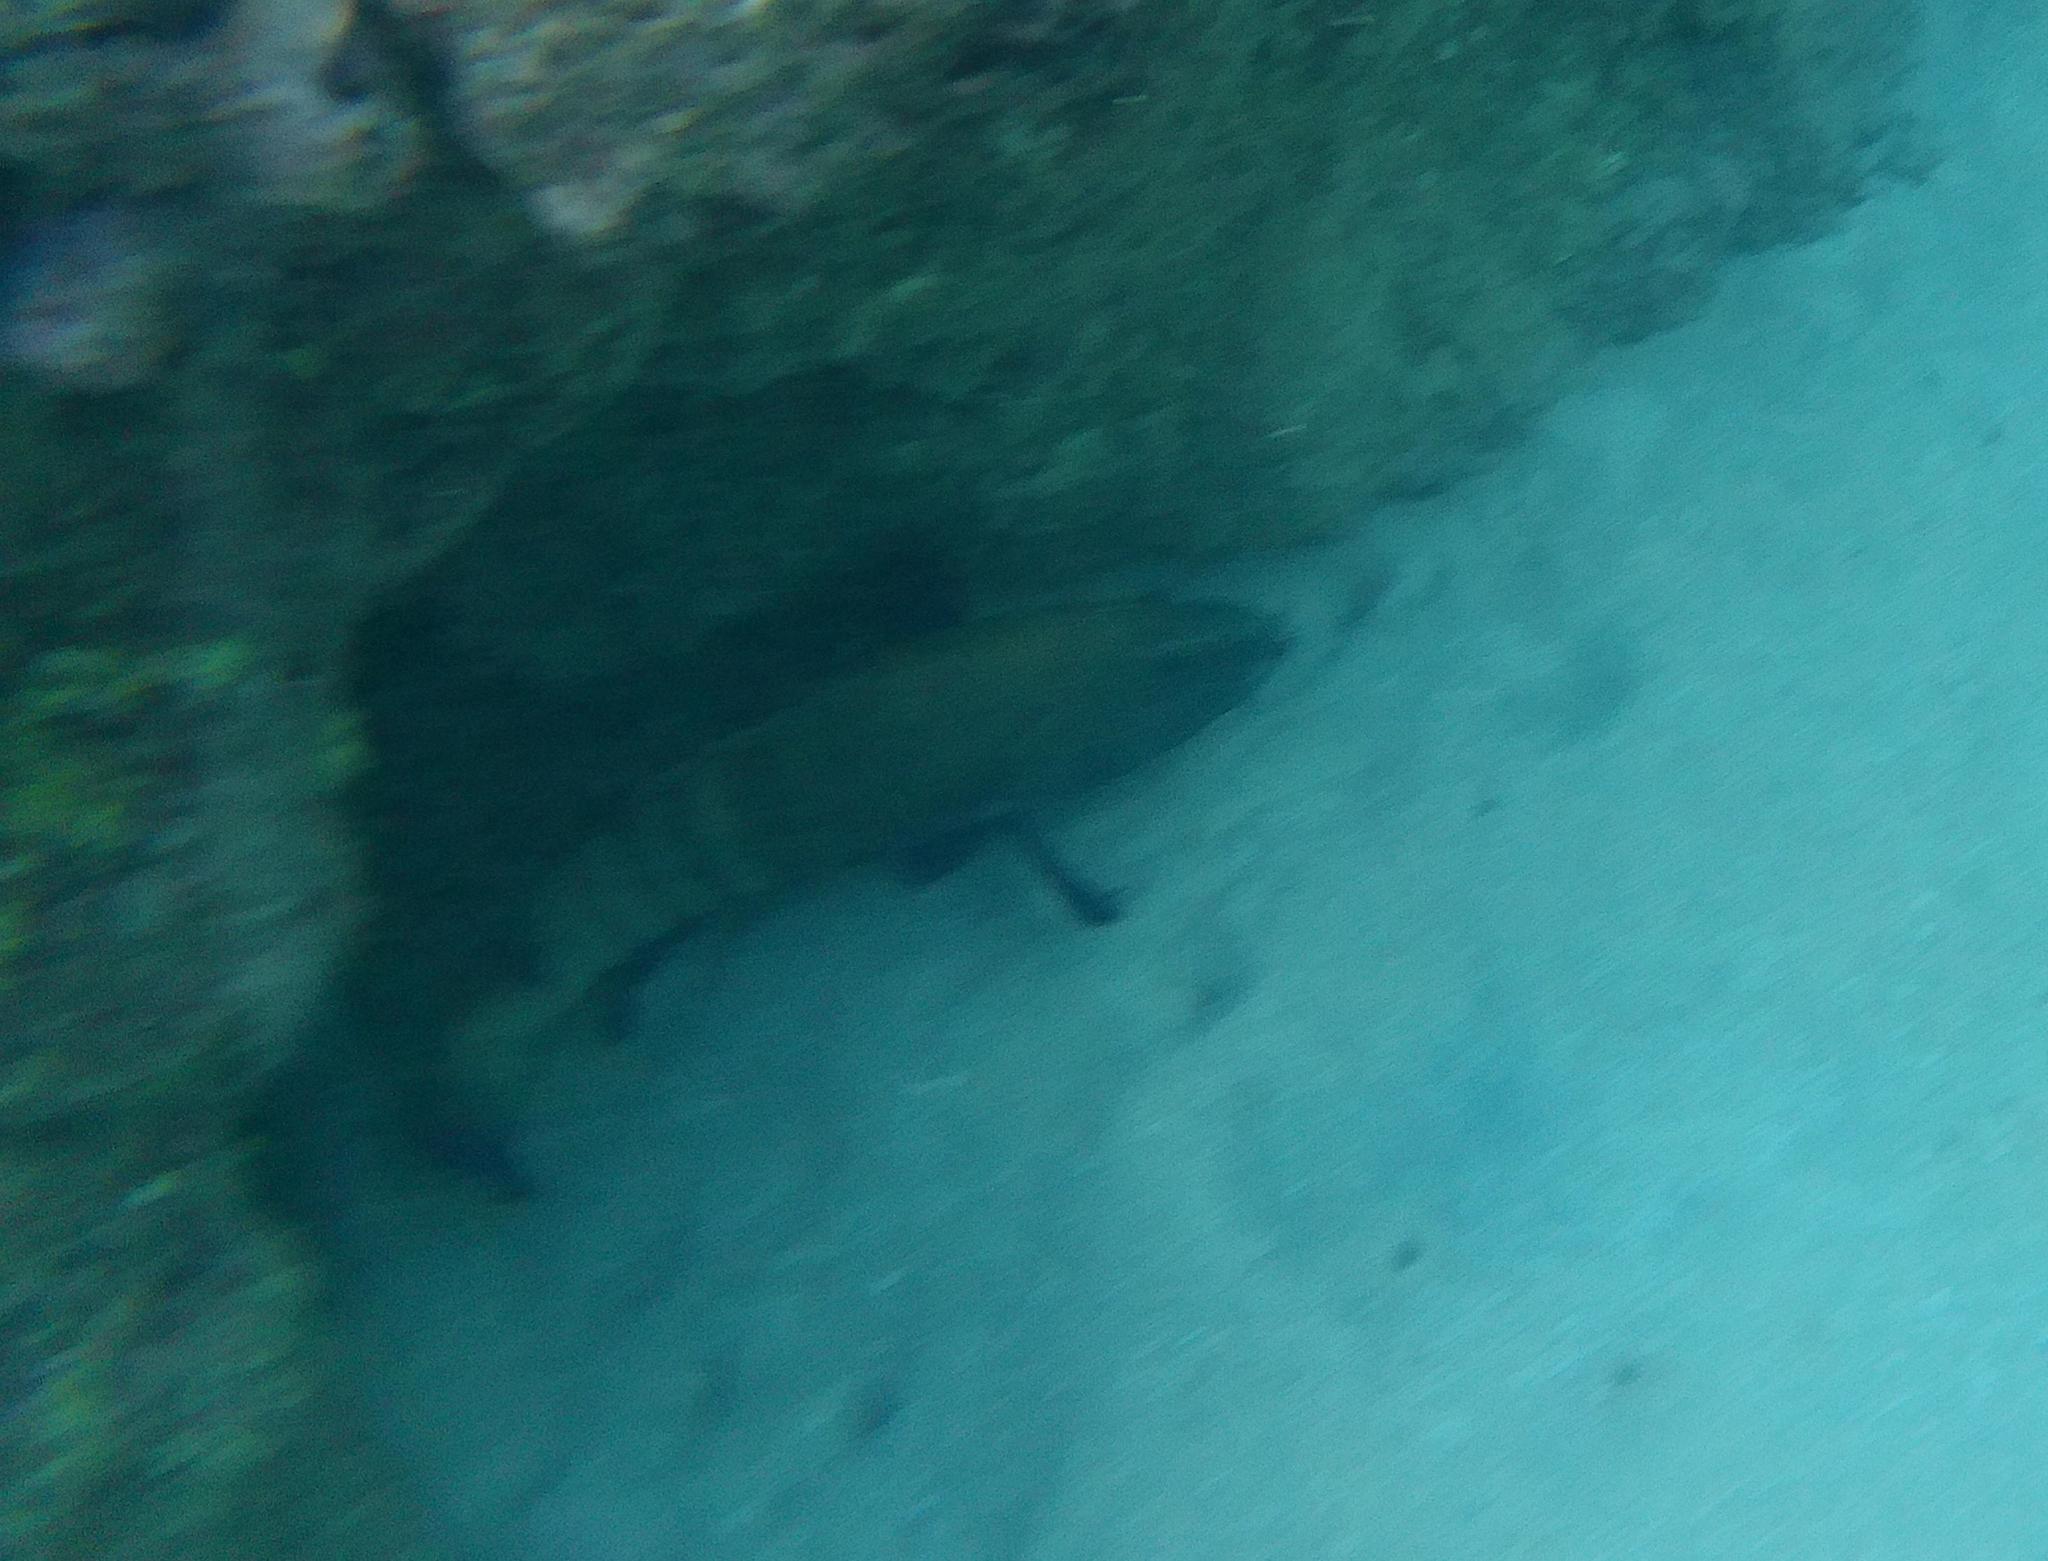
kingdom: Animalia
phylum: Chordata
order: Perciformes
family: Serranidae
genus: Cephalopholis
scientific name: Cephalopholis argus
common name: Peacock grouper
